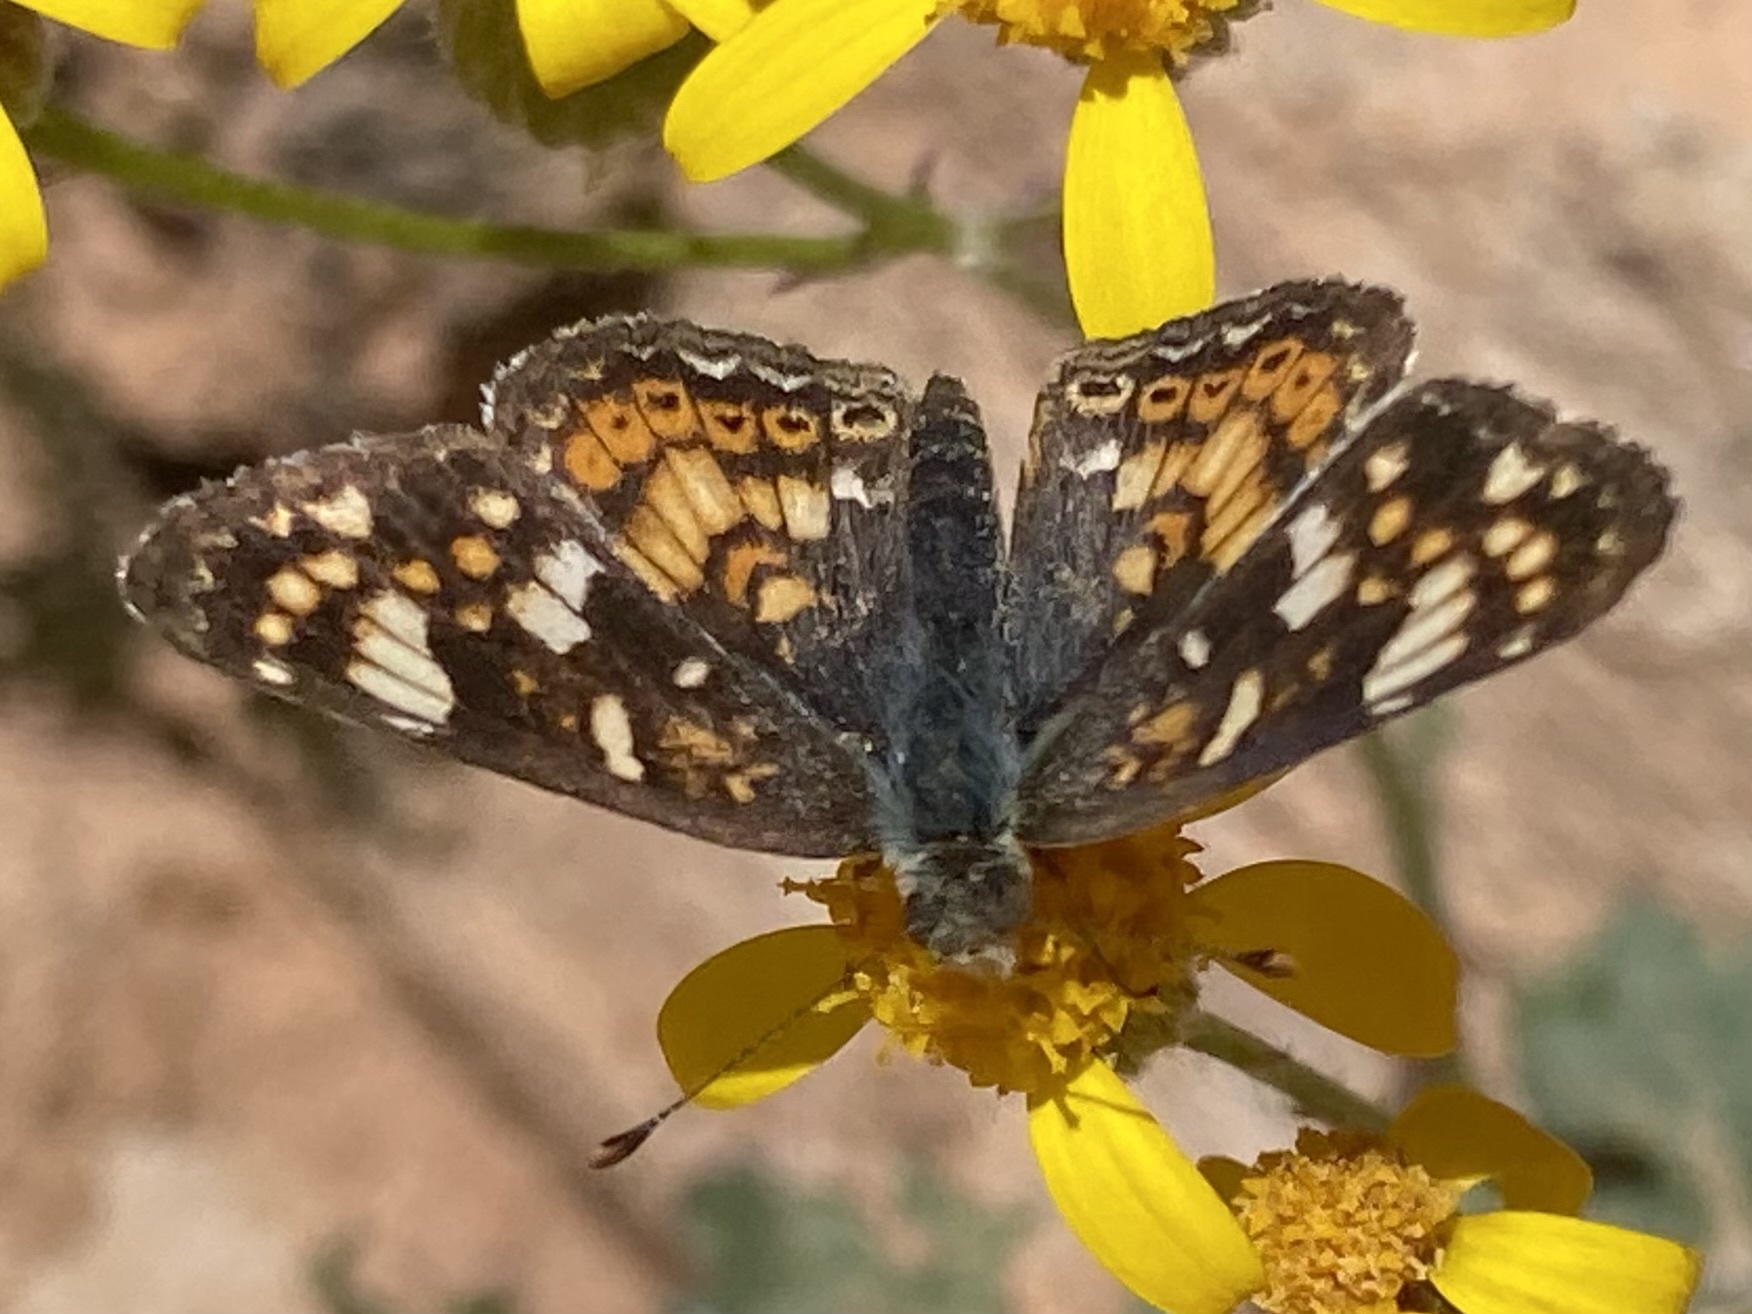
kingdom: Animalia
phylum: Arthropoda
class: Insecta
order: Lepidoptera
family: Nymphalidae
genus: Phyciodes
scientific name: Phyciodes tharos
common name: Pearl crescent
